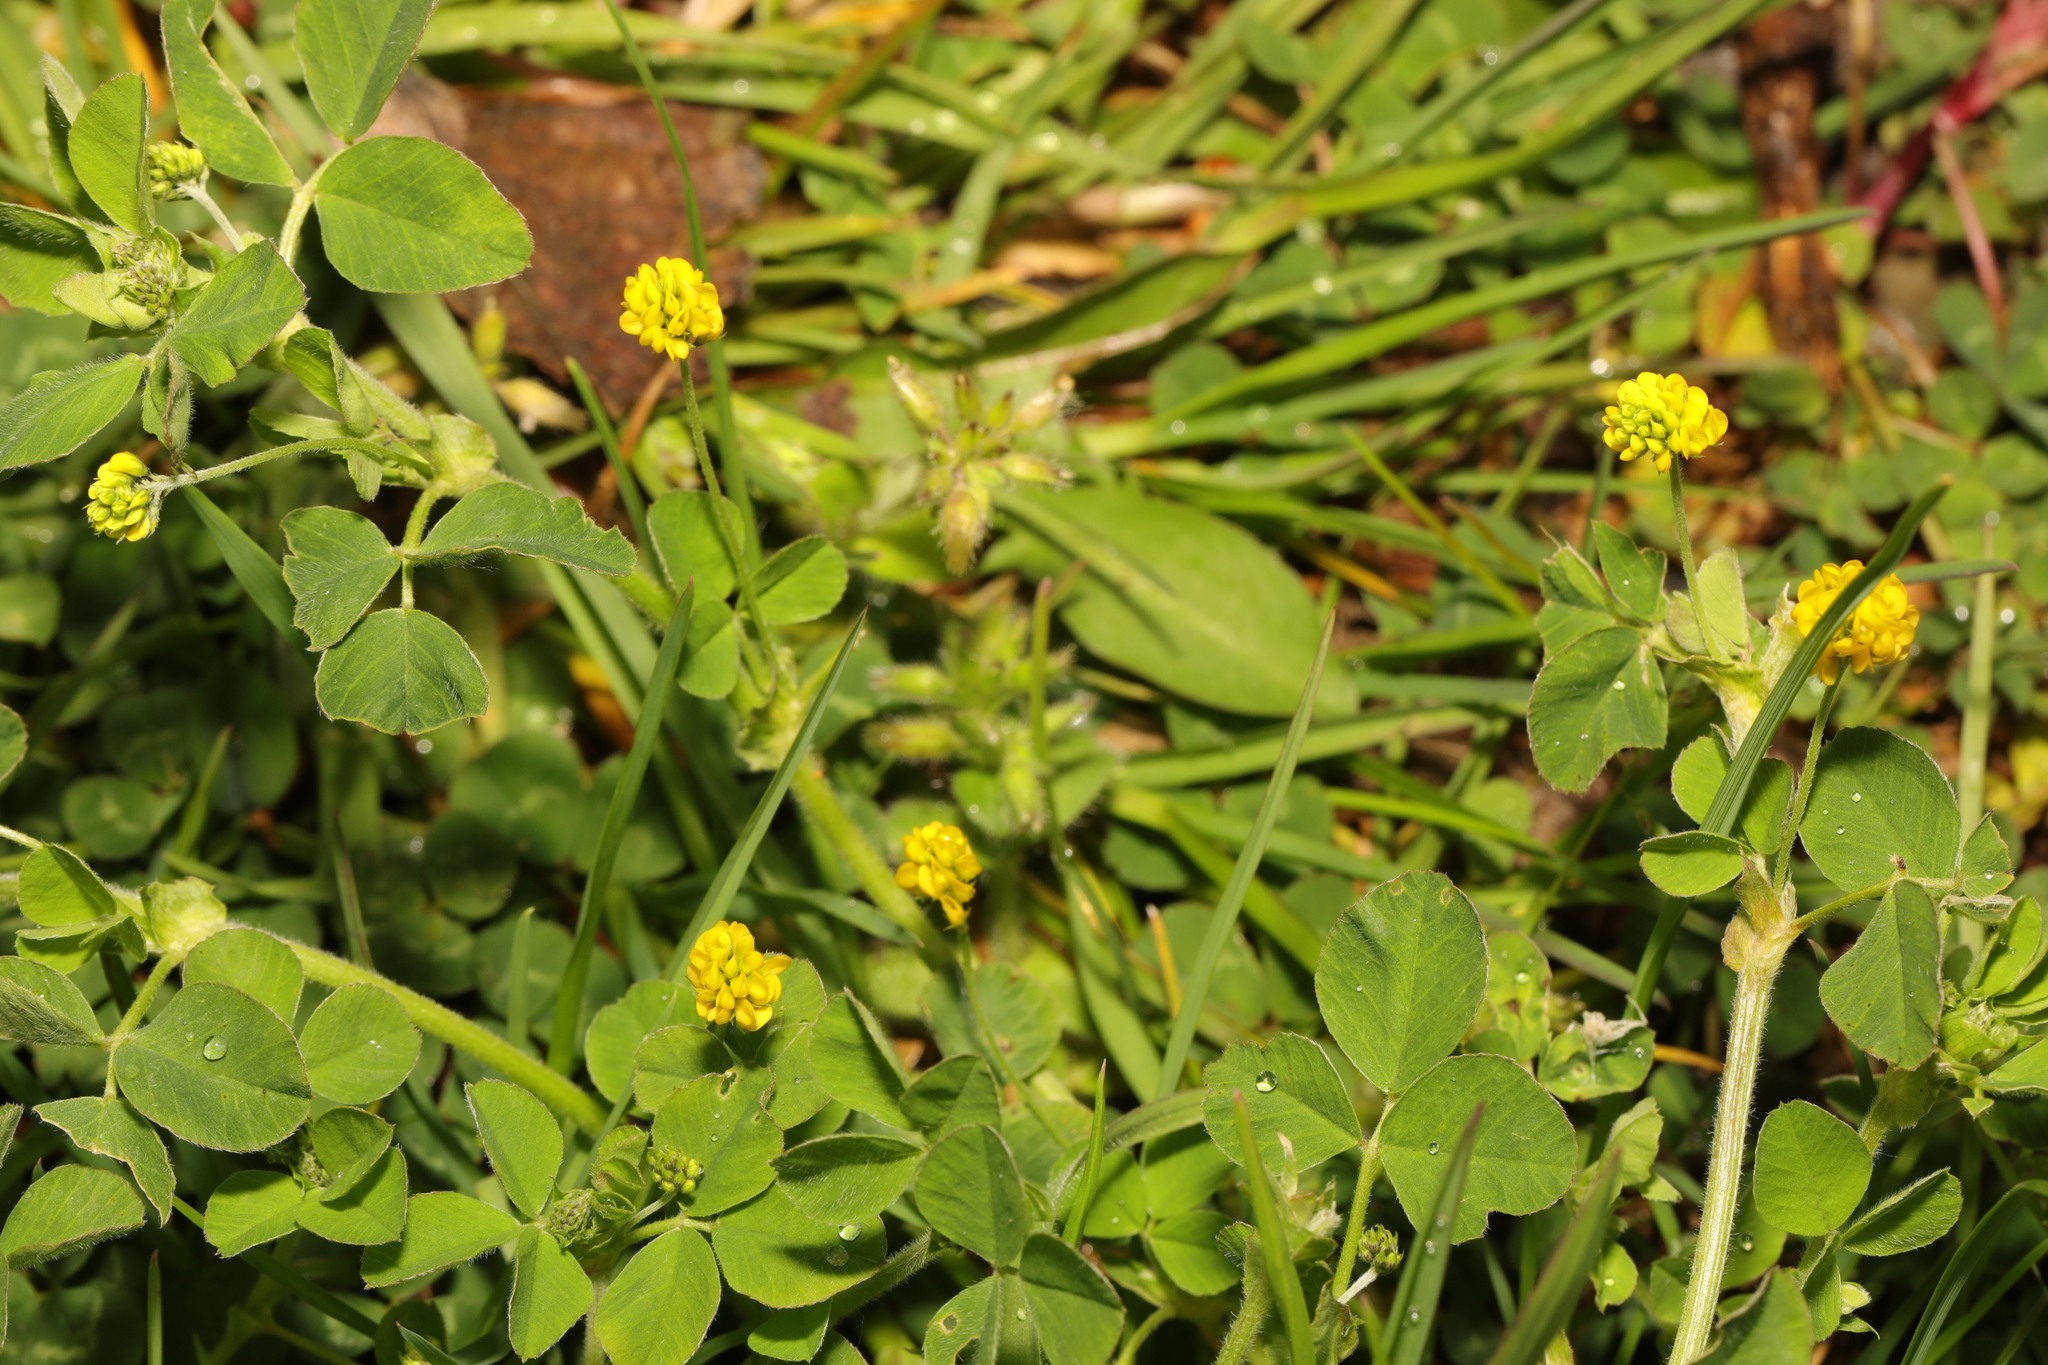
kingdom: Plantae
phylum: Tracheophyta
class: Magnoliopsida
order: Fabales
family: Fabaceae
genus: Medicago
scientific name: Medicago lupulina
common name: Black medick
